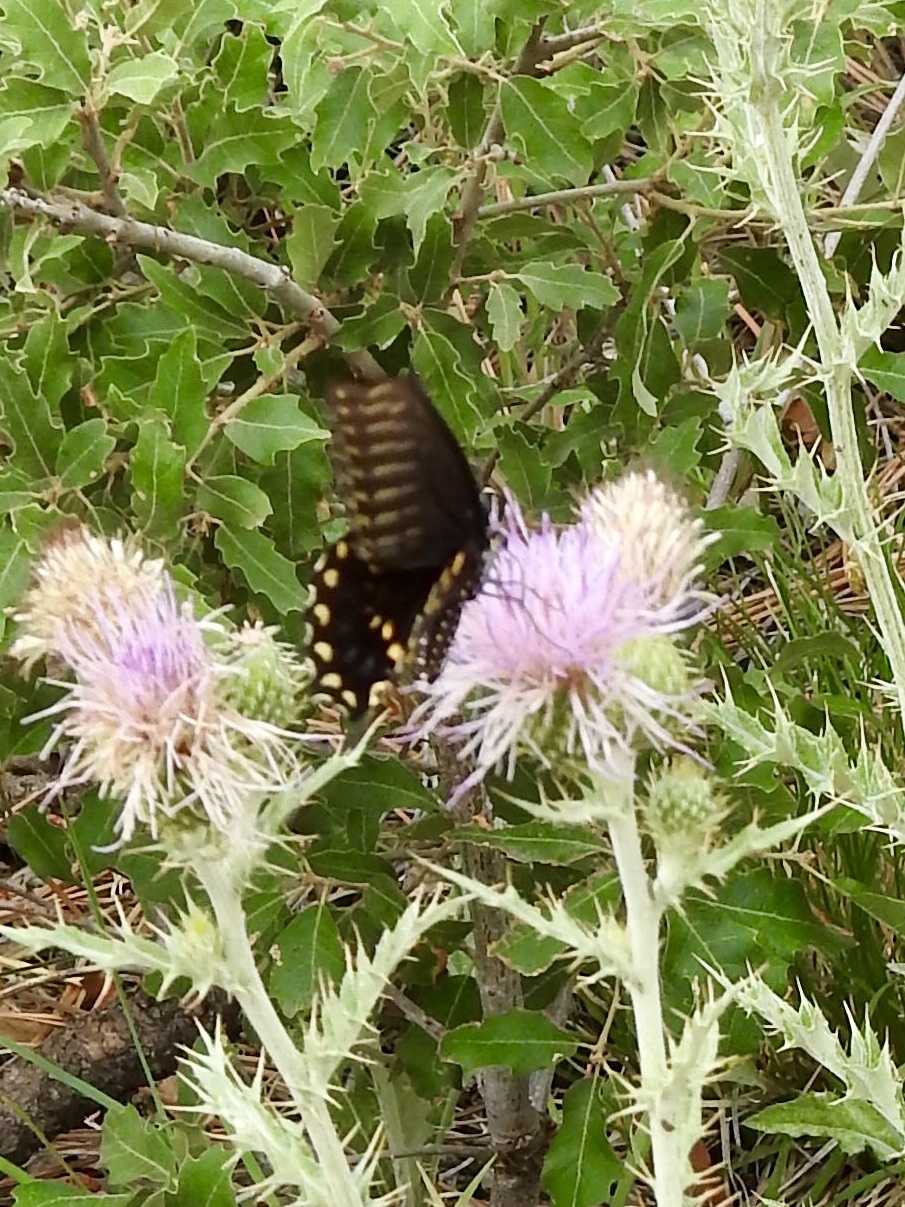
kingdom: Animalia
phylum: Arthropoda
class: Insecta
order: Lepidoptera
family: Papilionidae
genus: Papilio
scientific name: Papilio polyxenes
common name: Black swallowtail
